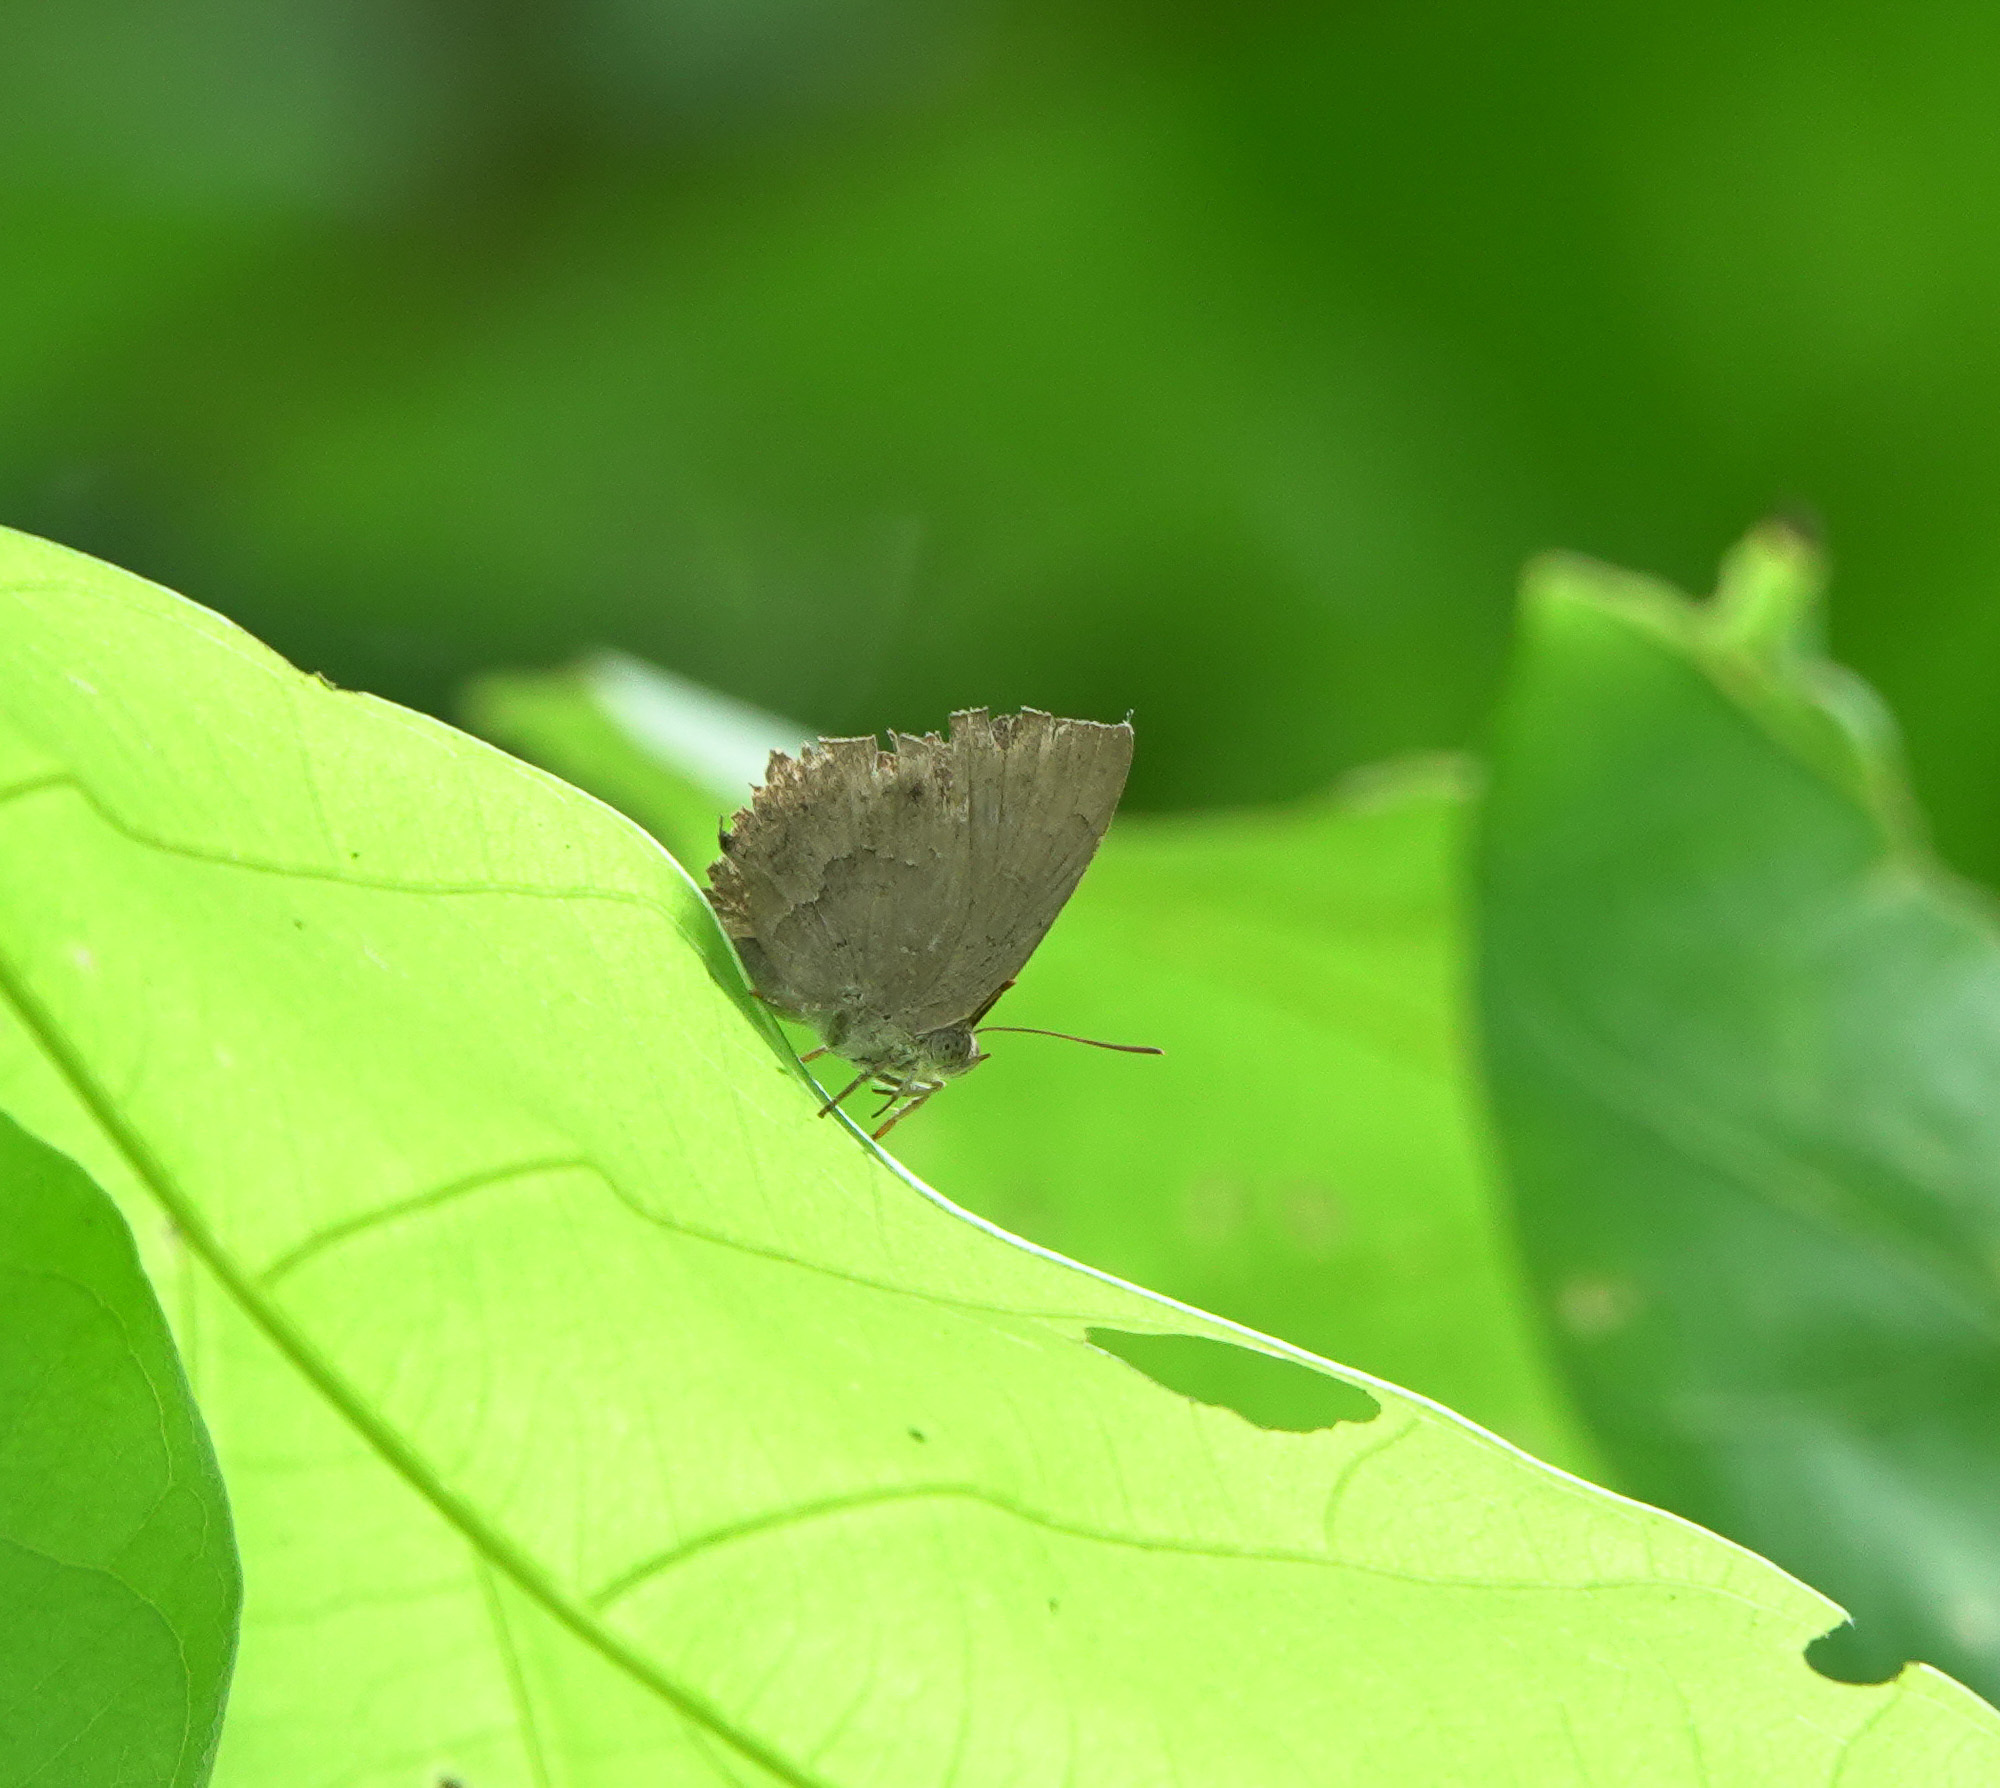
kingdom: Animalia
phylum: Arthropoda
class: Insecta
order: Lepidoptera
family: Lycaenidae
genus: Surendra
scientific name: Surendra quercetorum
